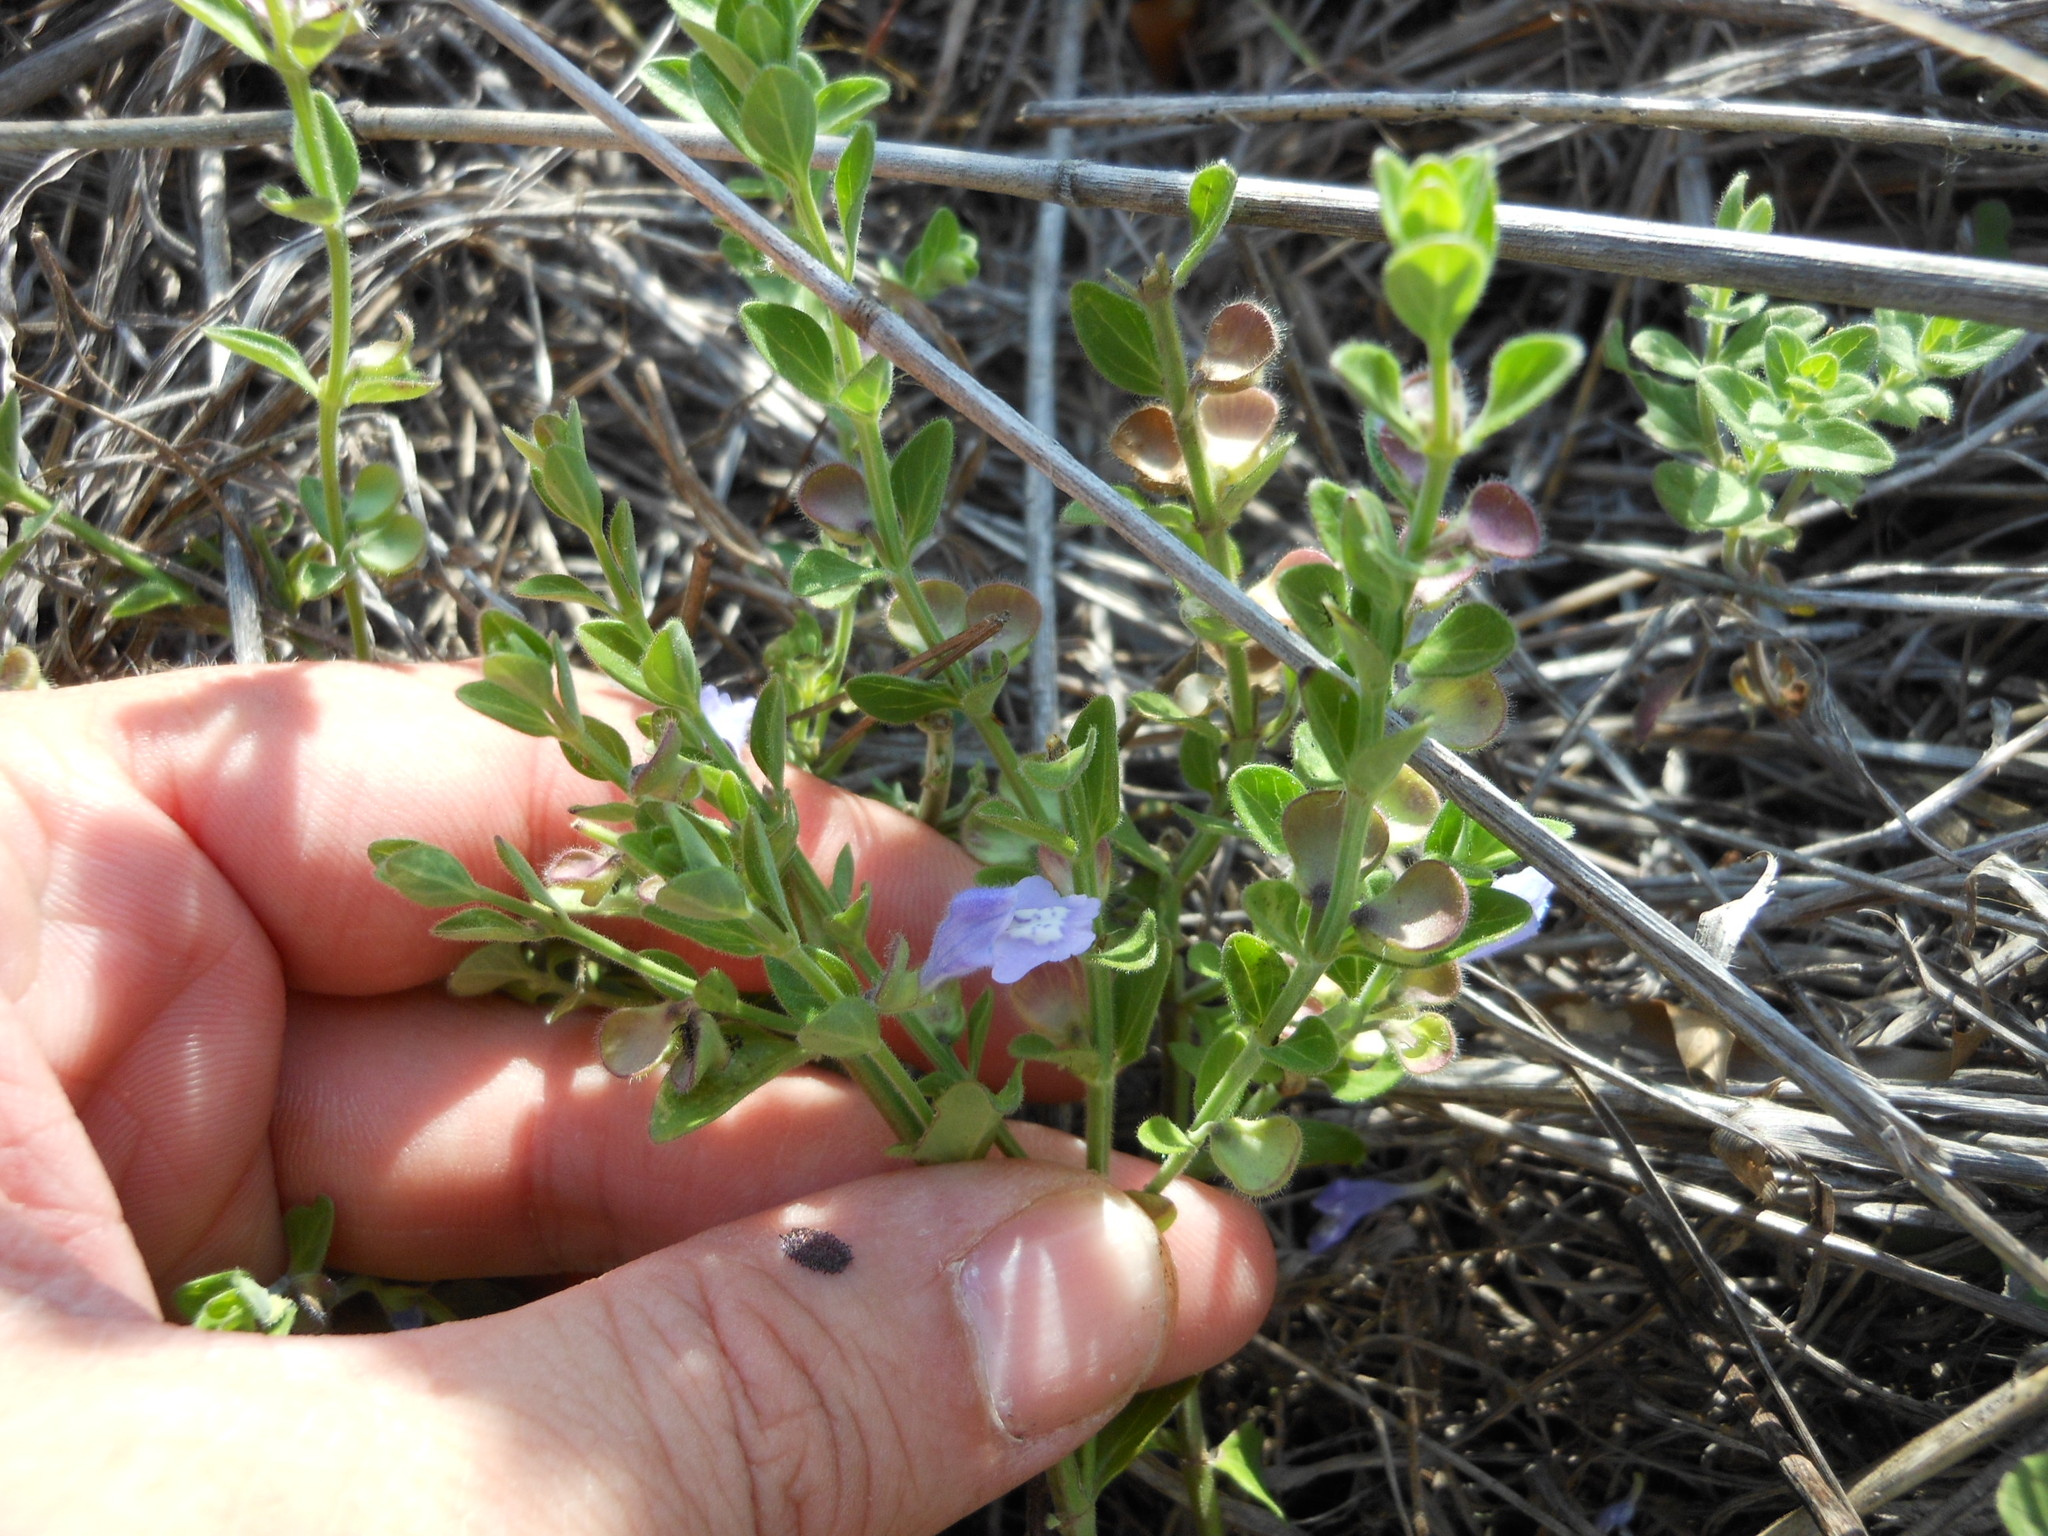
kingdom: Plantae
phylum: Tracheophyta
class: Magnoliopsida
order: Lamiales
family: Lamiaceae
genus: Scutellaria
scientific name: Scutellaria drummondii
